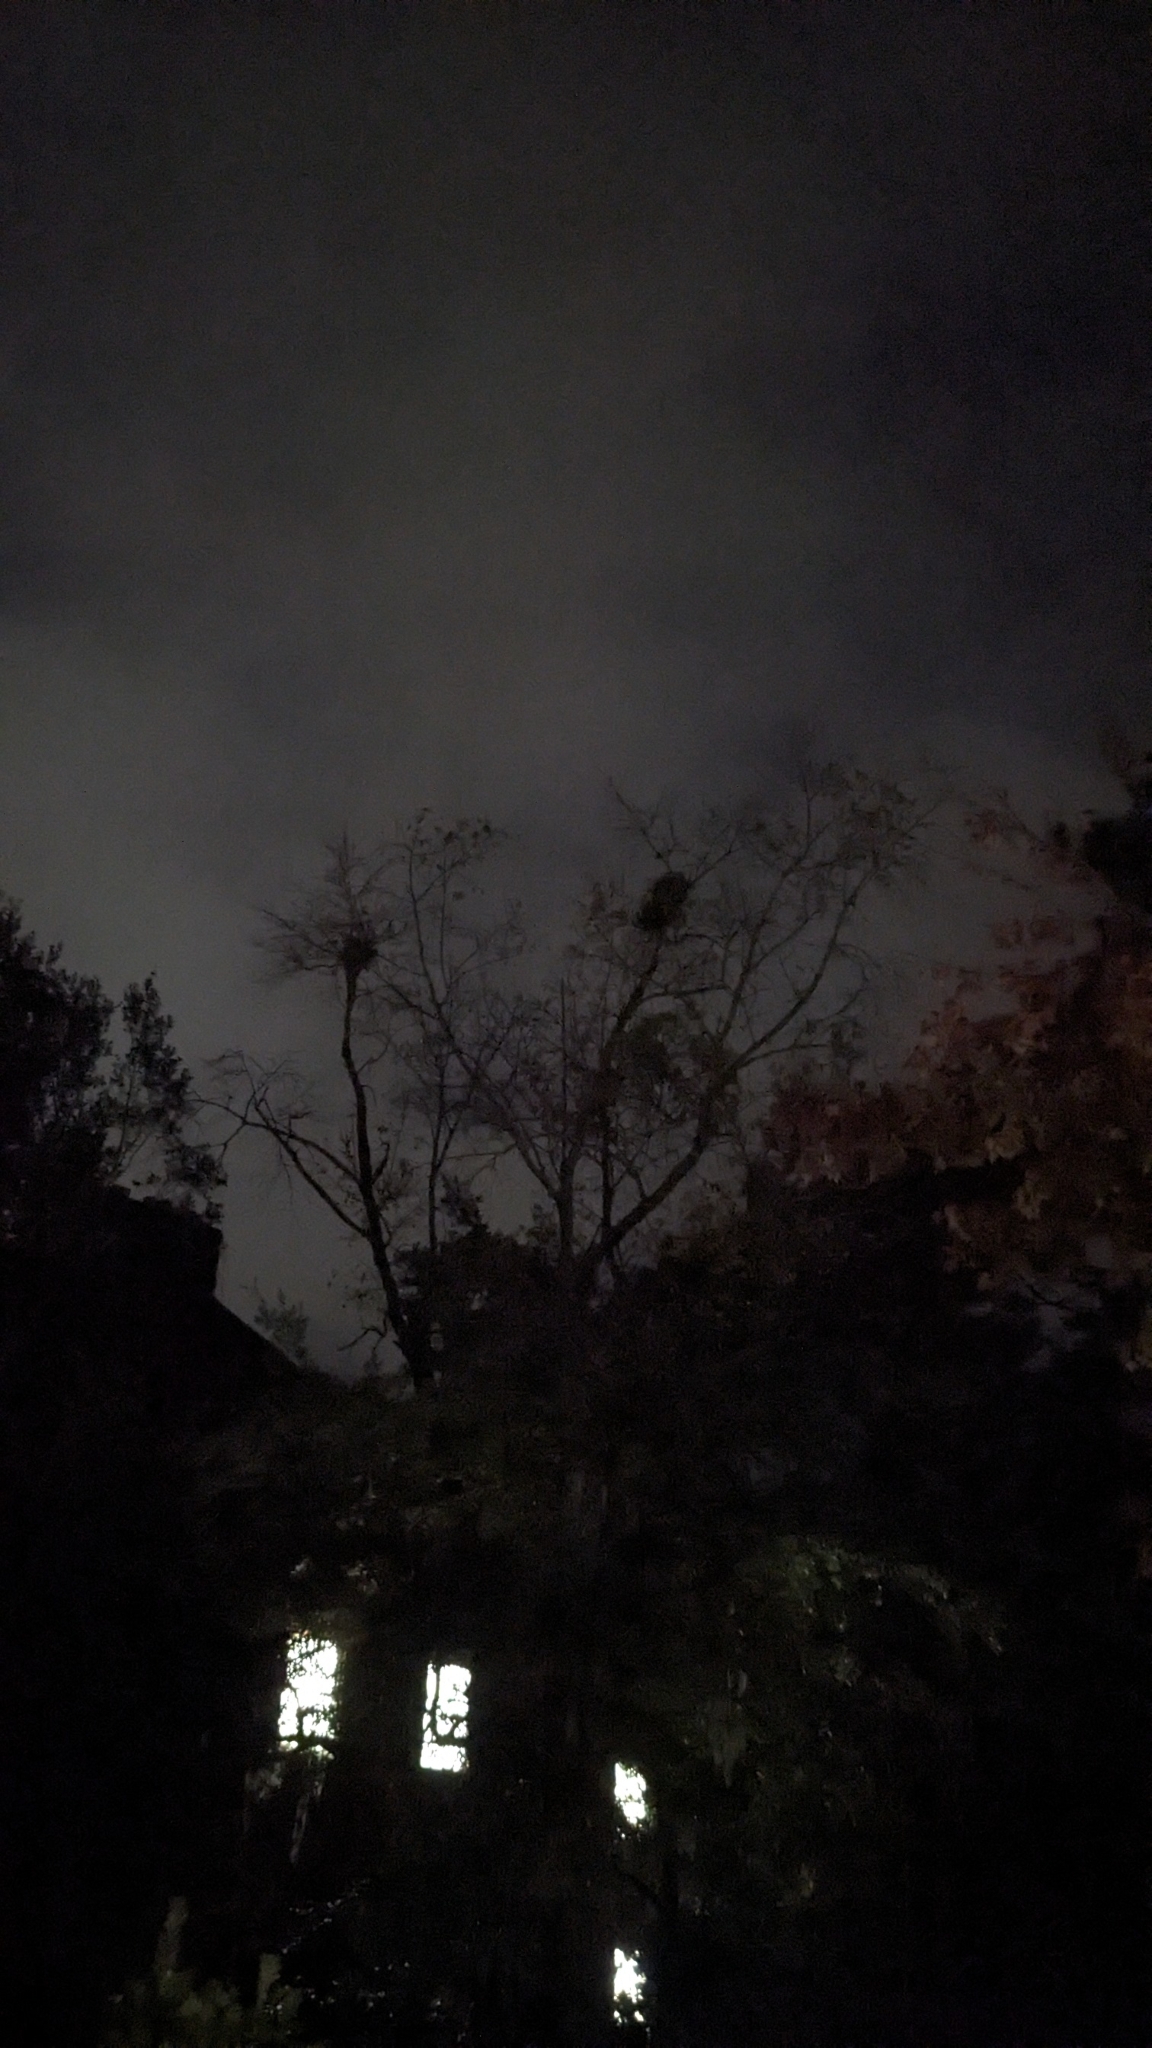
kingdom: Plantae
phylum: Tracheophyta
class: Magnoliopsida
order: Santalales
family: Viscaceae
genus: Phoradendron
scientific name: Phoradendron leucarpum
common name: Pacific mistletoe
